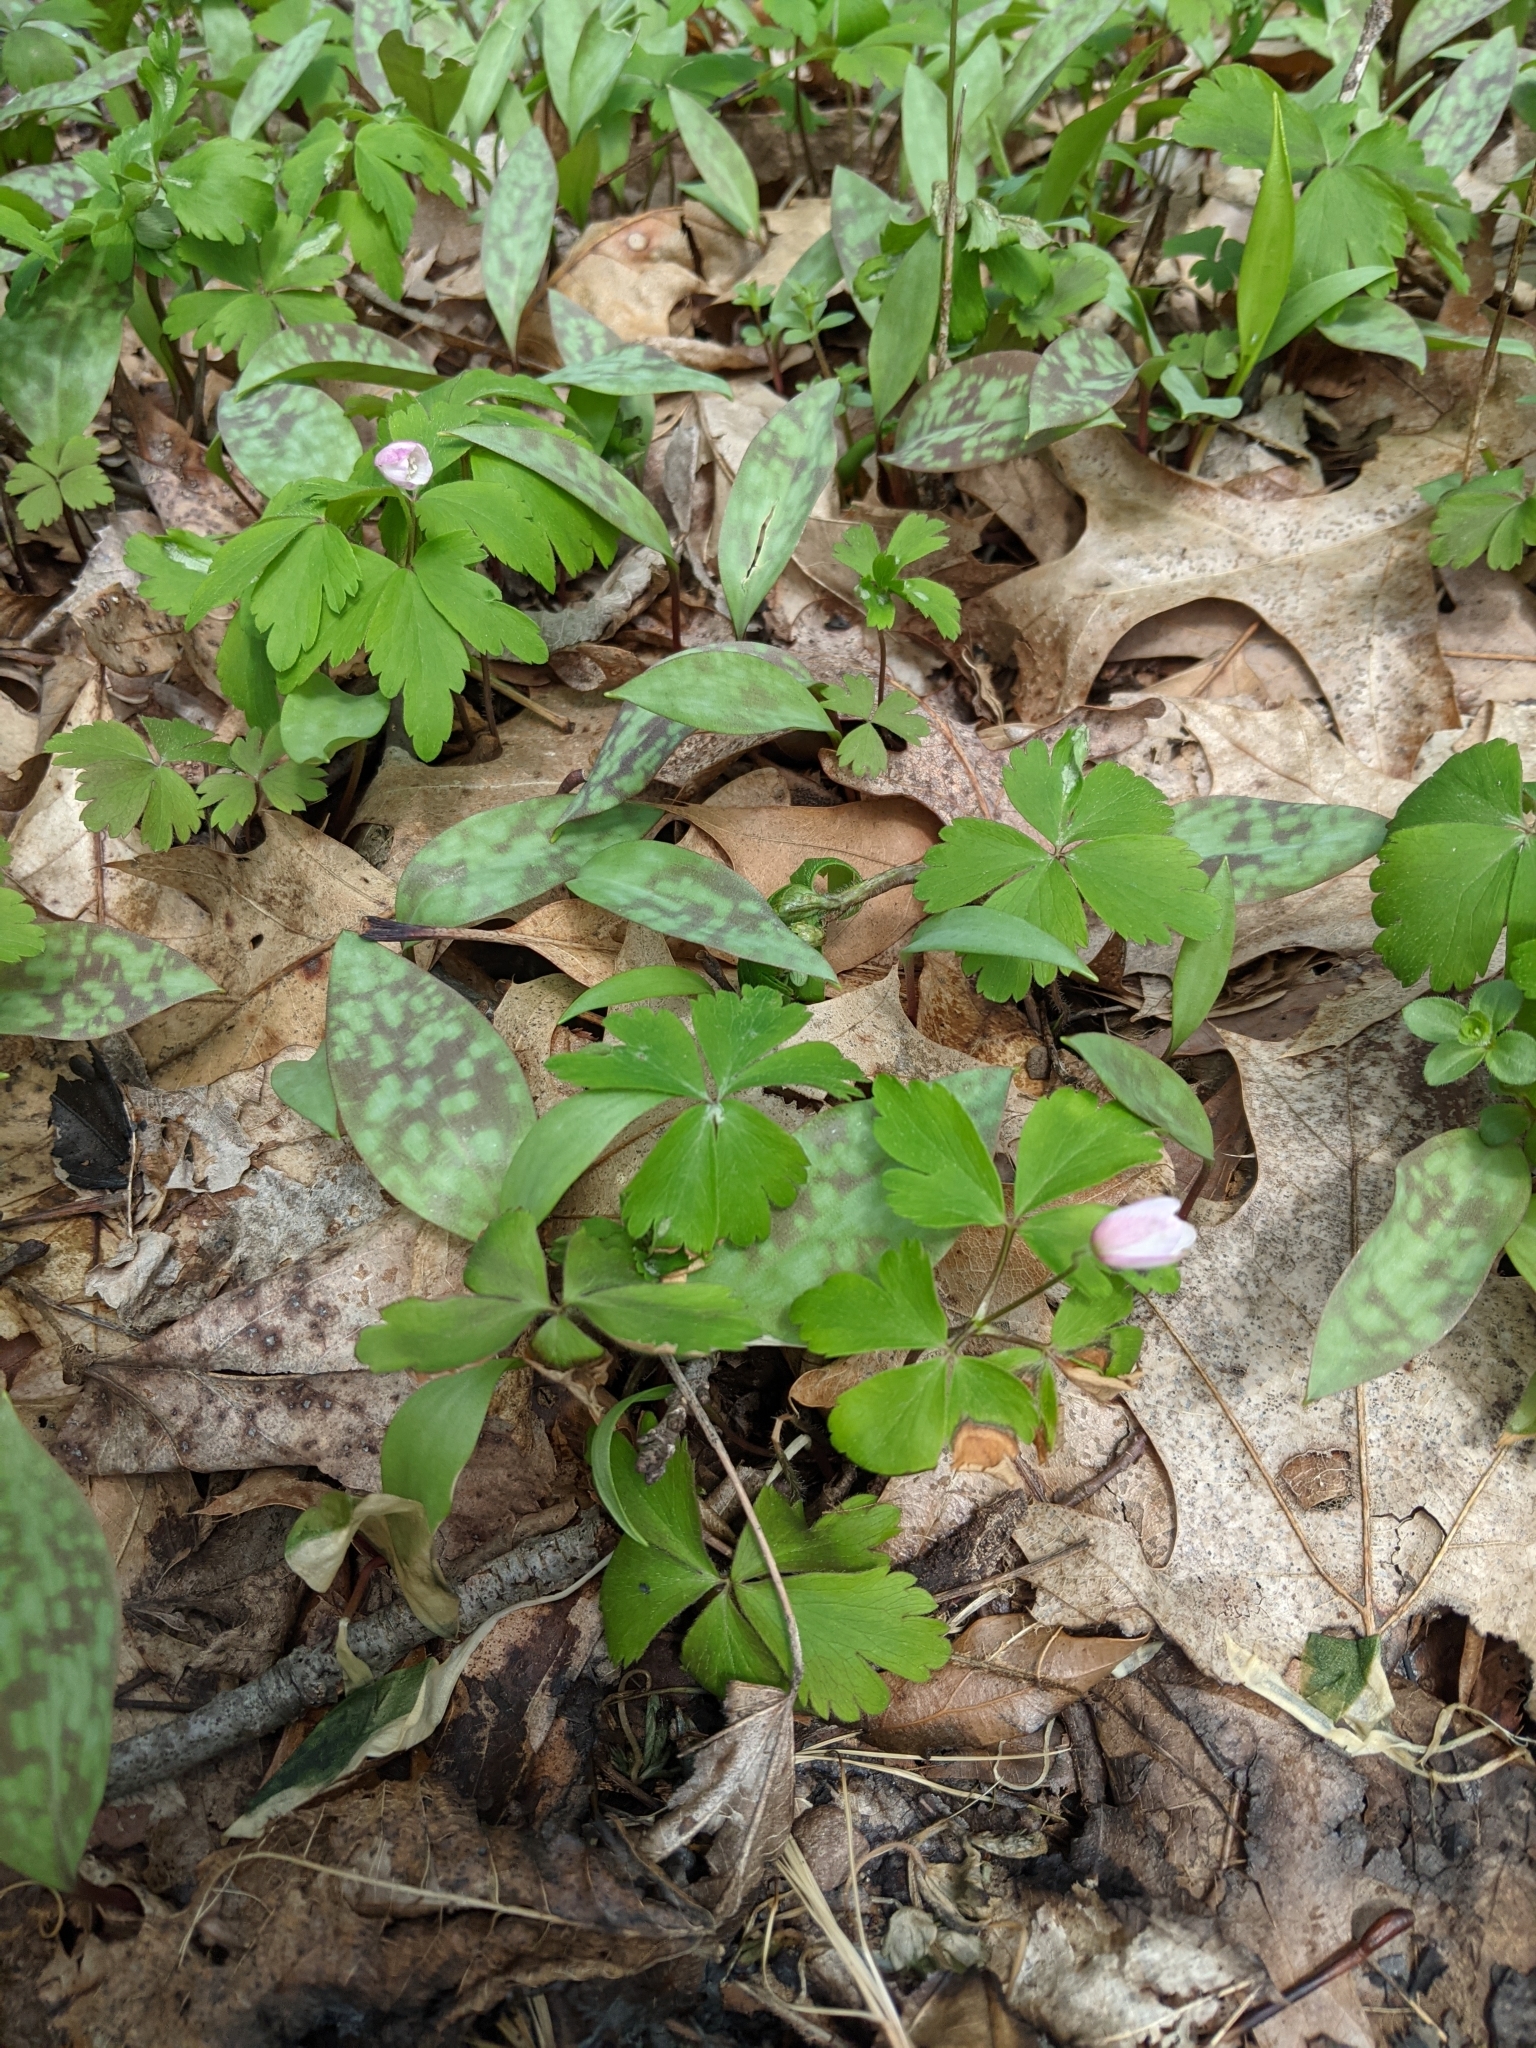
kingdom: Plantae
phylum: Tracheophyta
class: Magnoliopsida
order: Ranunculales
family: Ranunculaceae
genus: Anemone
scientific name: Anemone quinquefolia
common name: Wood anemone
